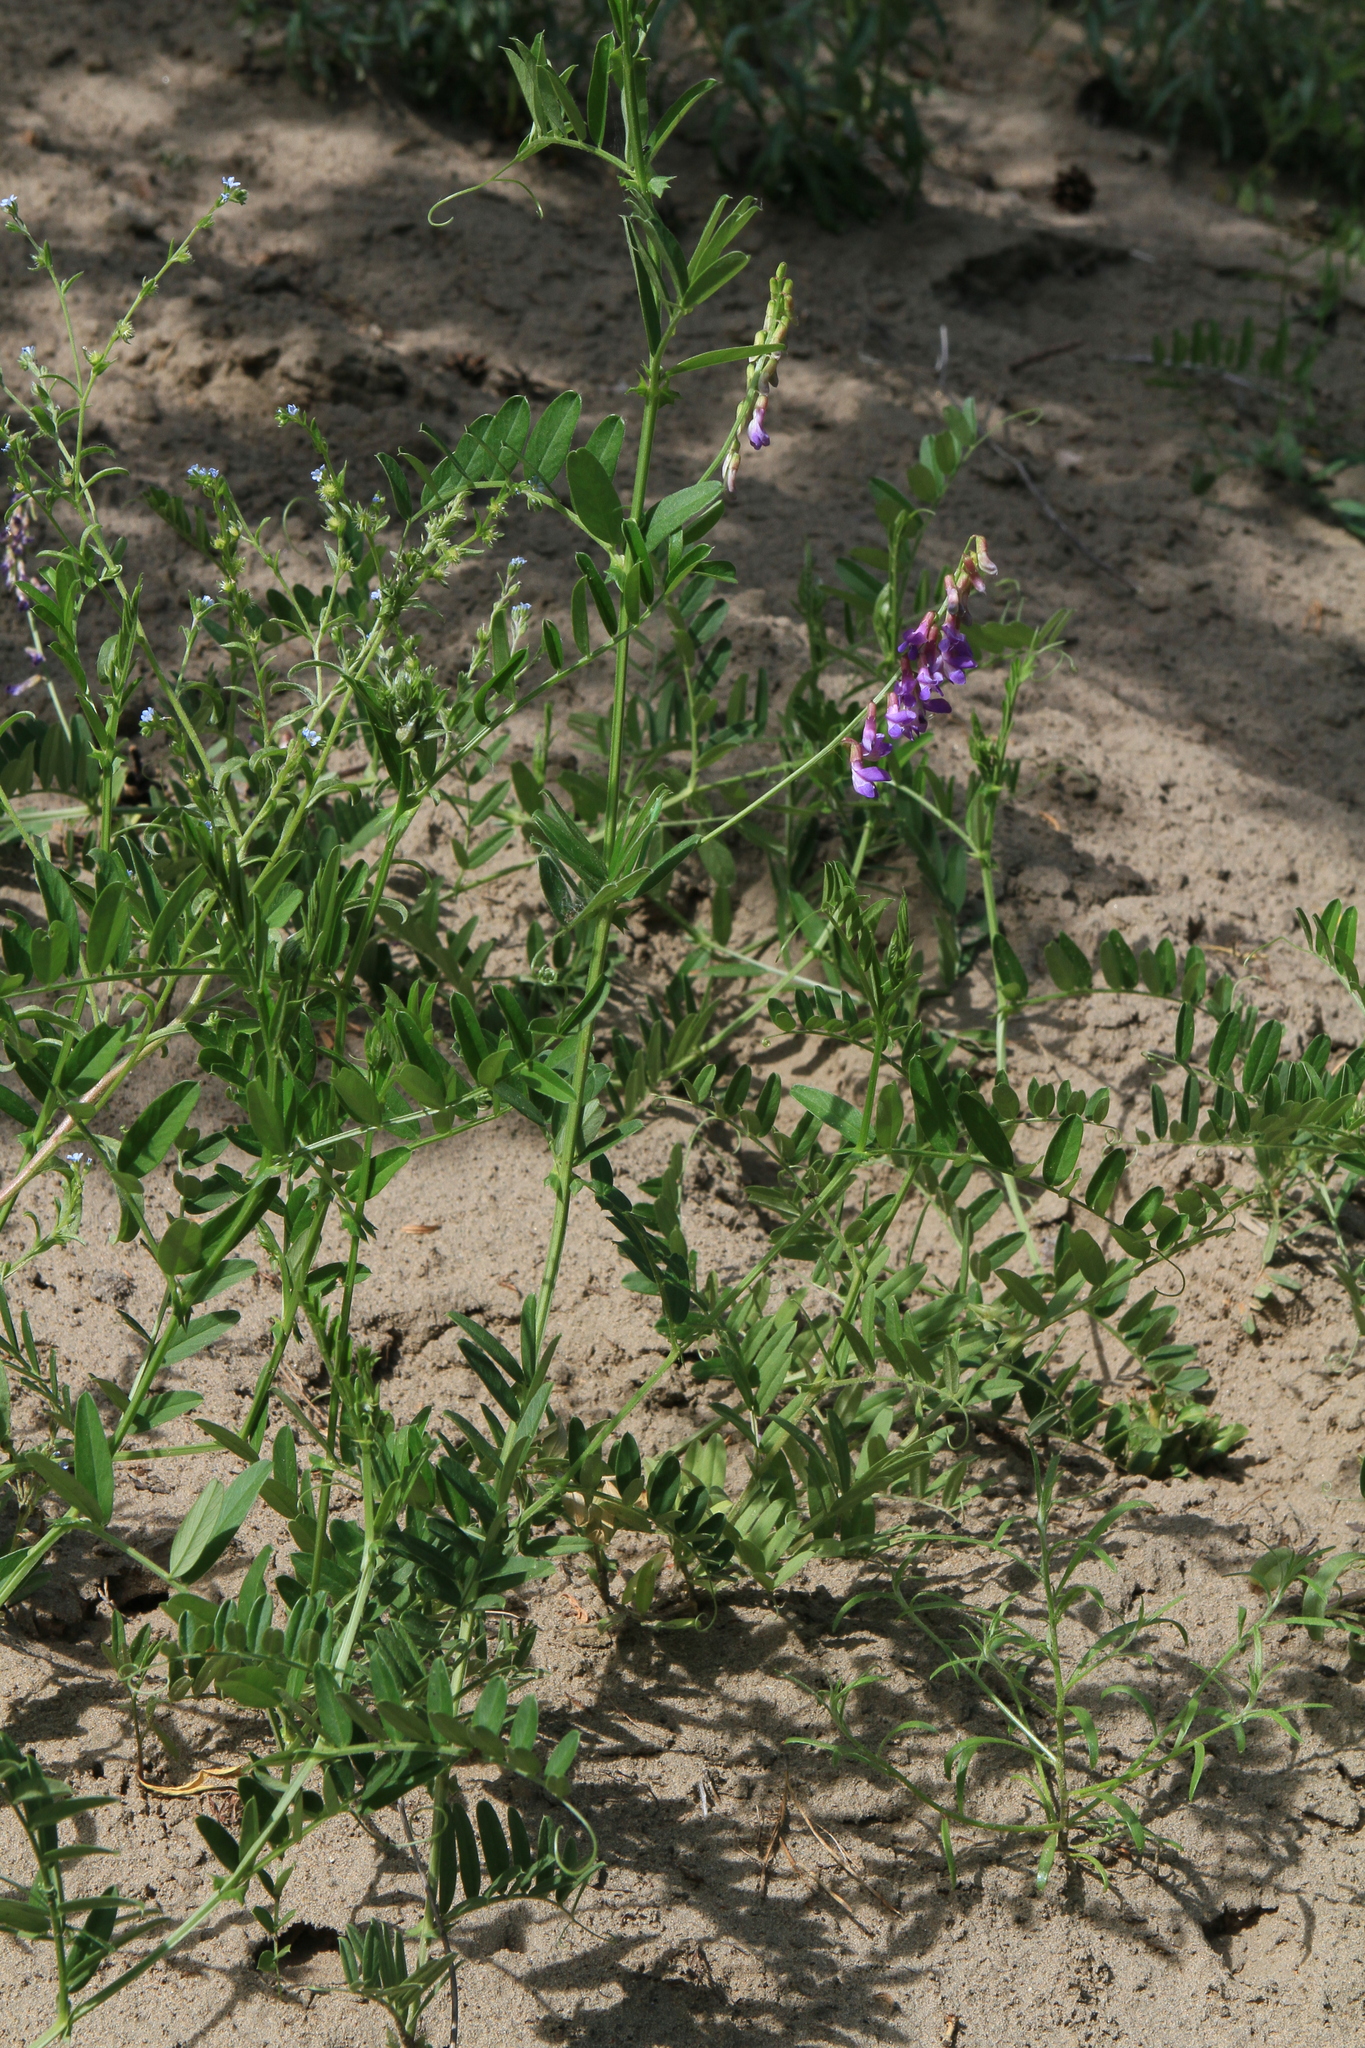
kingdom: Plantae
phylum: Tracheophyta
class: Magnoliopsida
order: Fabales
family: Fabaceae
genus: Vicia
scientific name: Vicia amoena
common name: Cheder ebs
